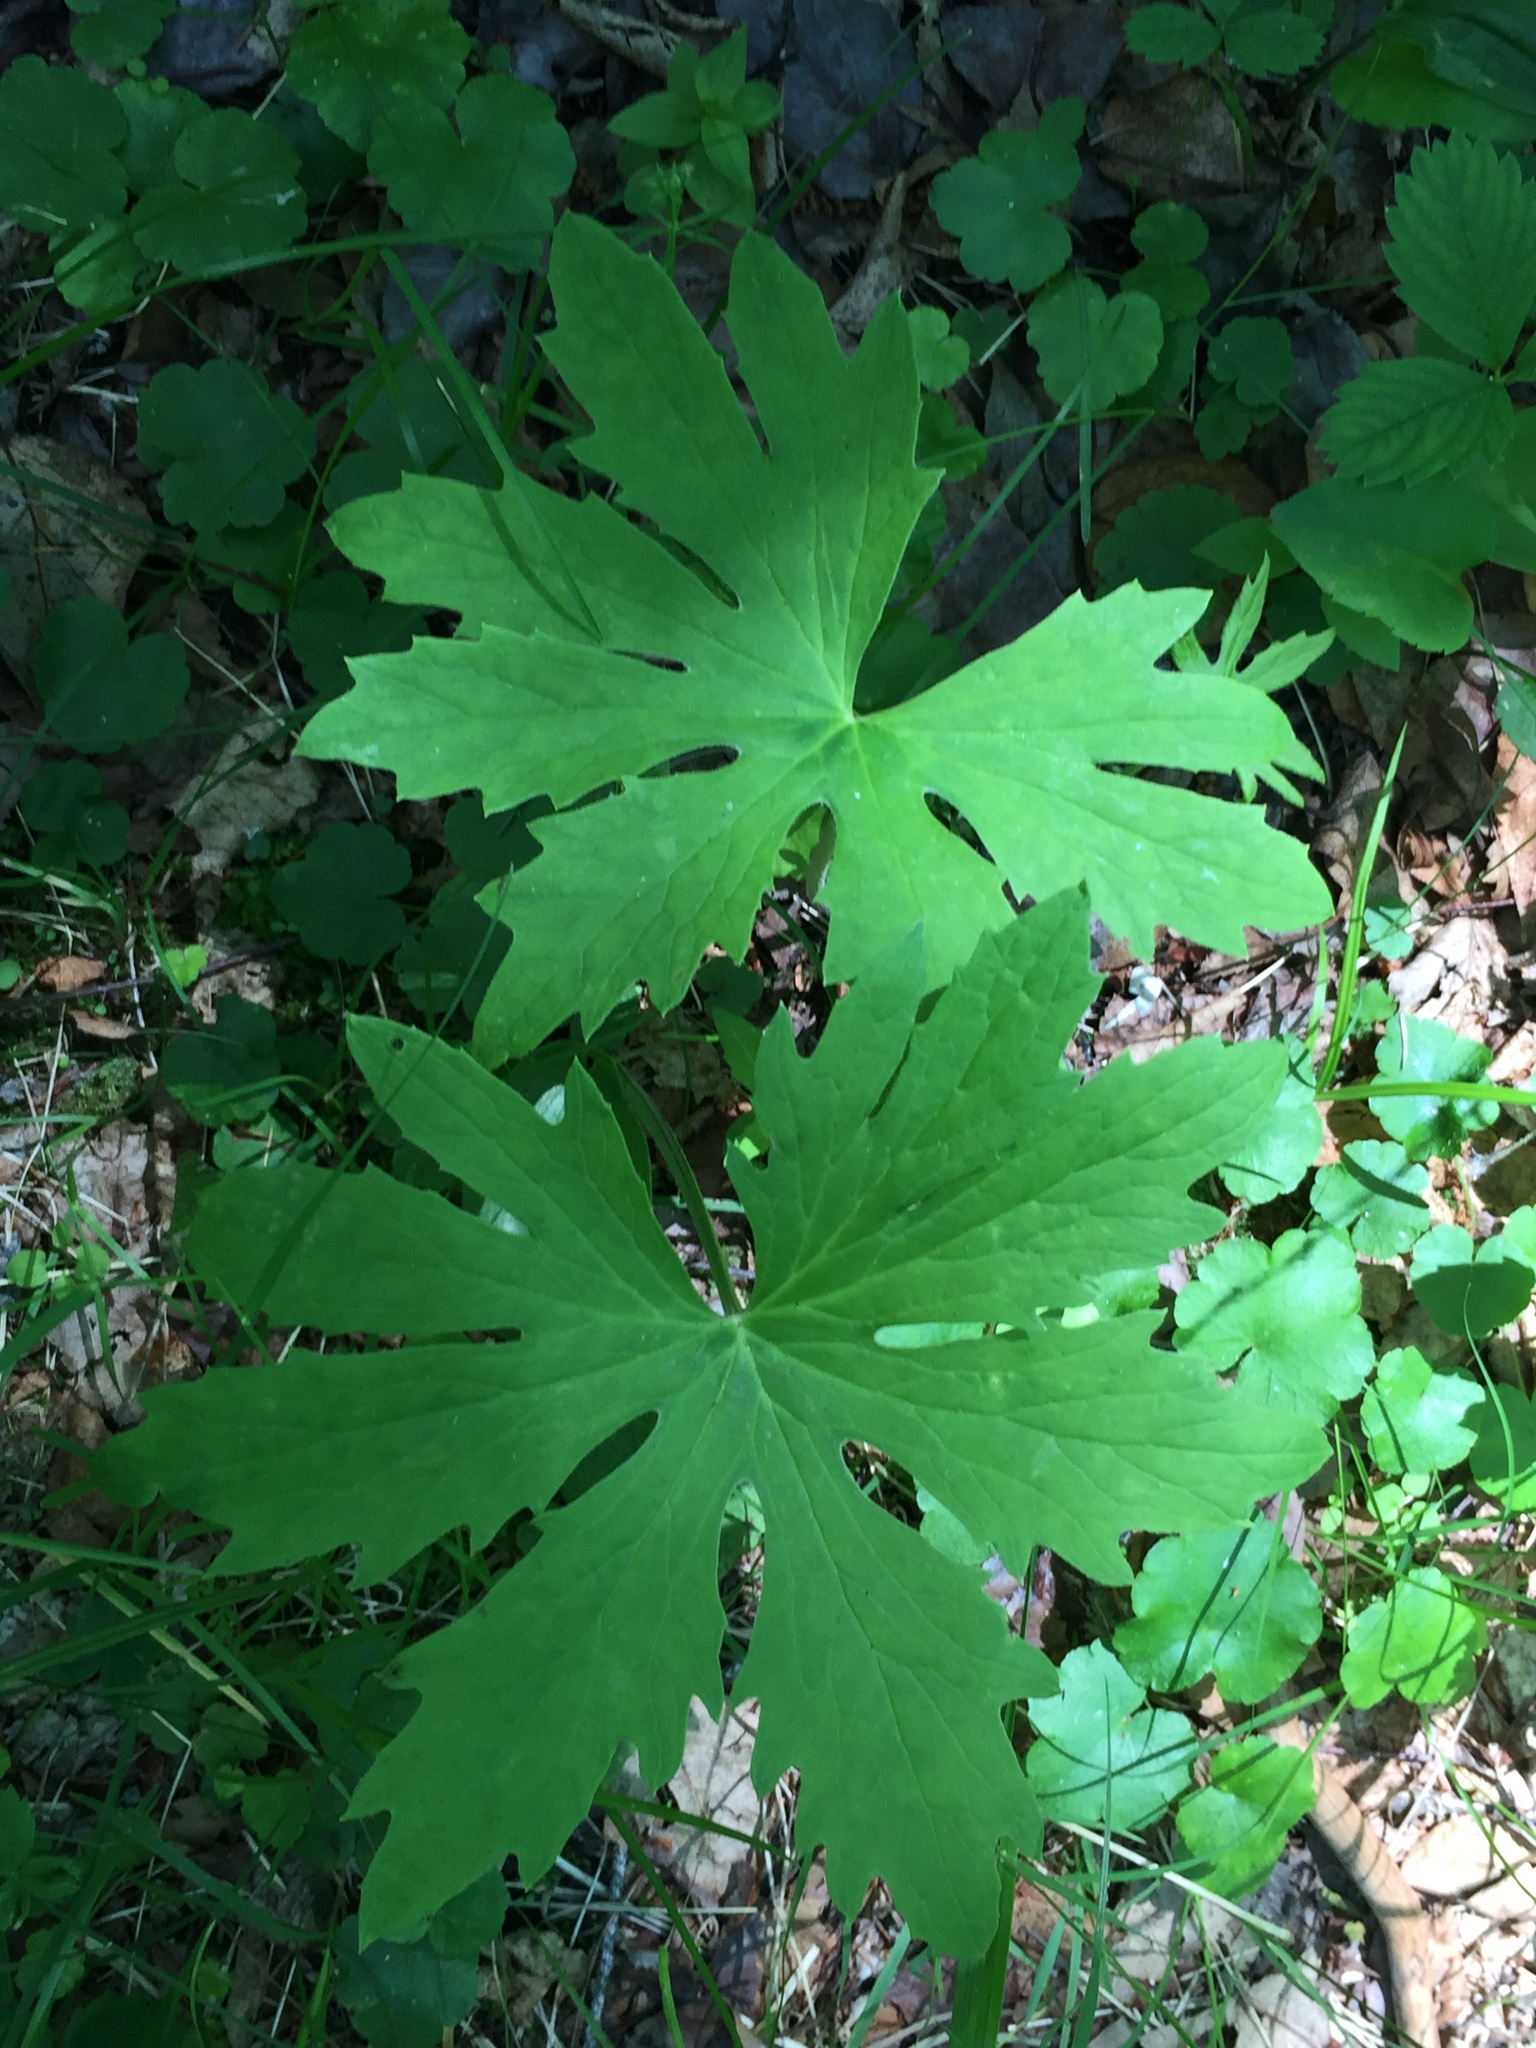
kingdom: Plantae
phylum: Tracheophyta
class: Magnoliopsida
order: Asterales
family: Asteraceae
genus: Petasites
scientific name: Petasites frigidus
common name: Arctic butterbur
